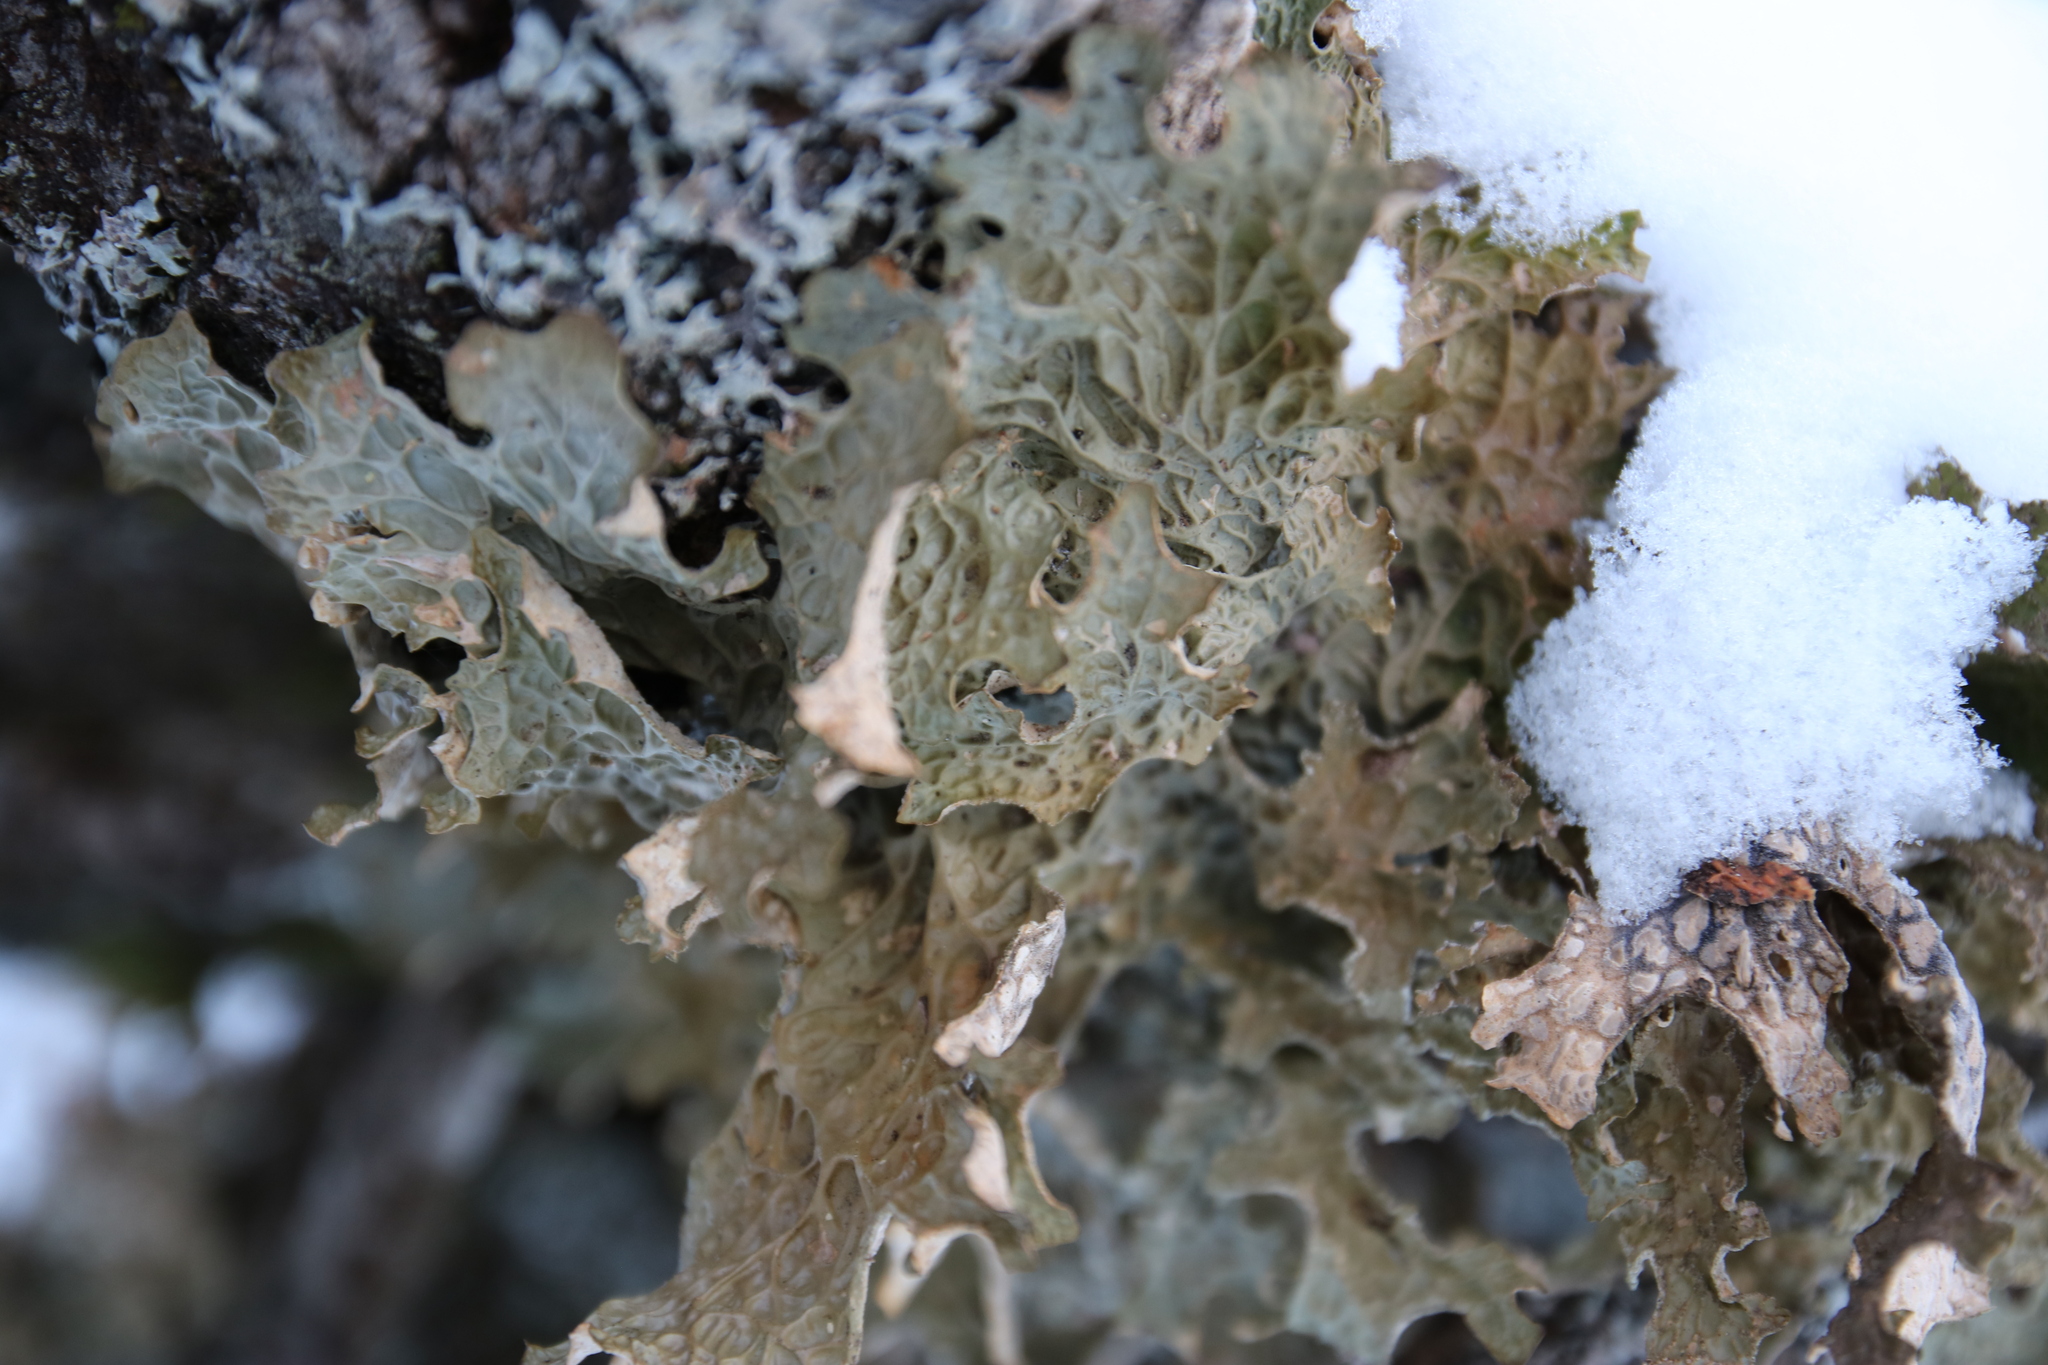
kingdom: Fungi
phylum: Ascomycota
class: Lecanoromycetes
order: Peltigerales
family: Lobariaceae
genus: Lobaria
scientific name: Lobaria pulmonaria
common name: Lungwort
